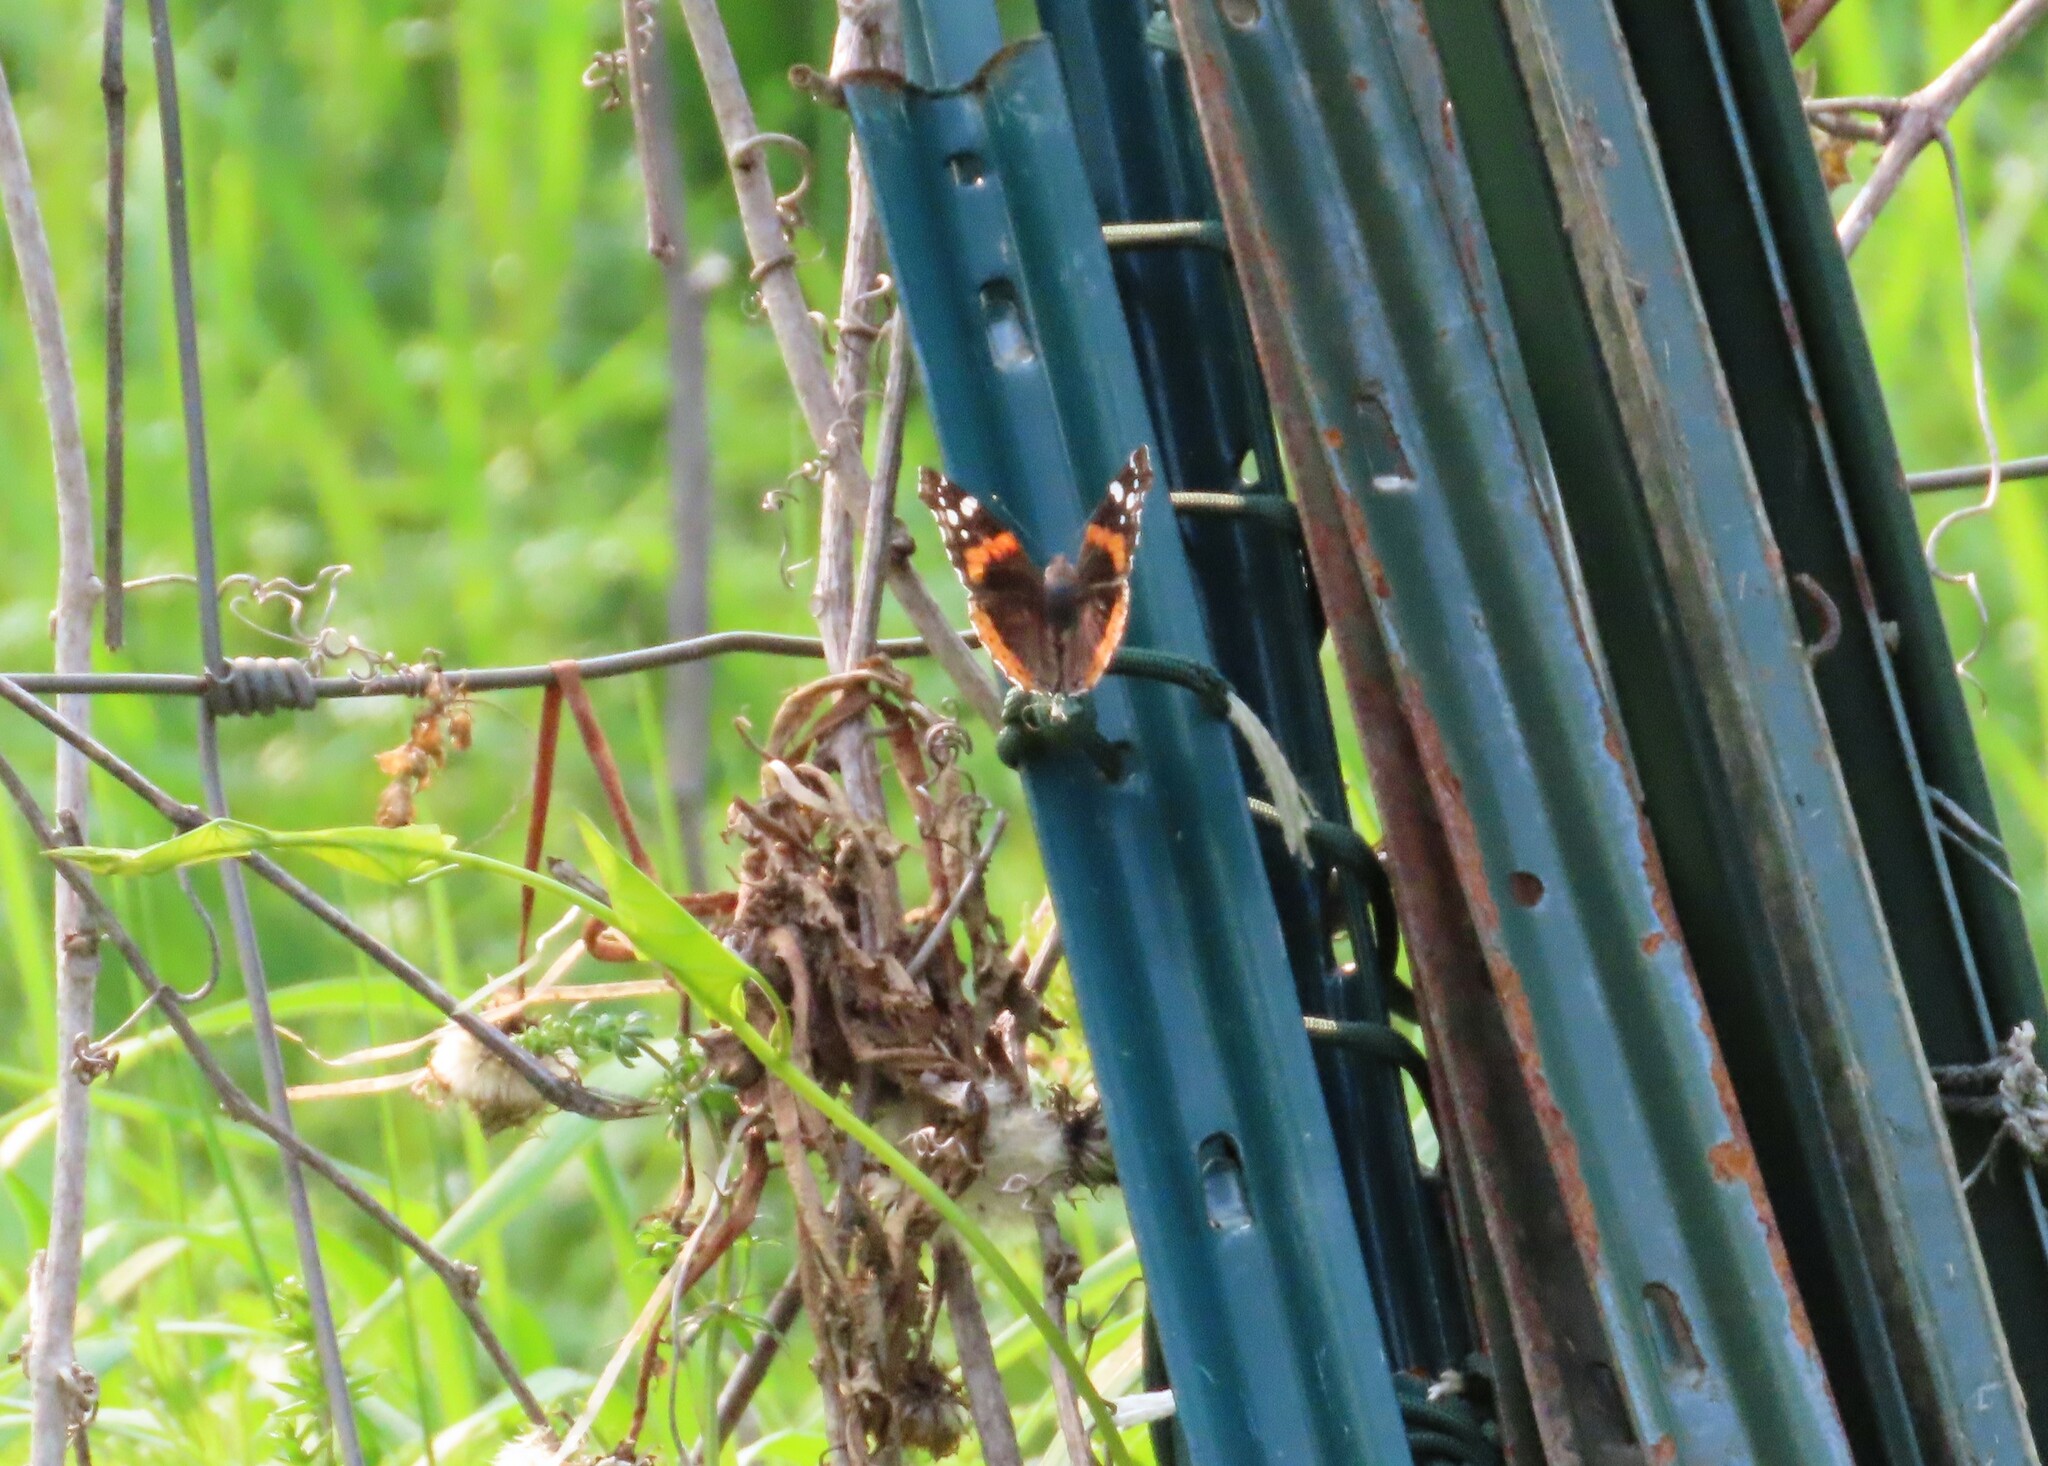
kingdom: Animalia
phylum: Arthropoda
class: Insecta
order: Lepidoptera
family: Nymphalidae
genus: Vanessa
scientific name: Vanessa atalanta
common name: Red admiral
